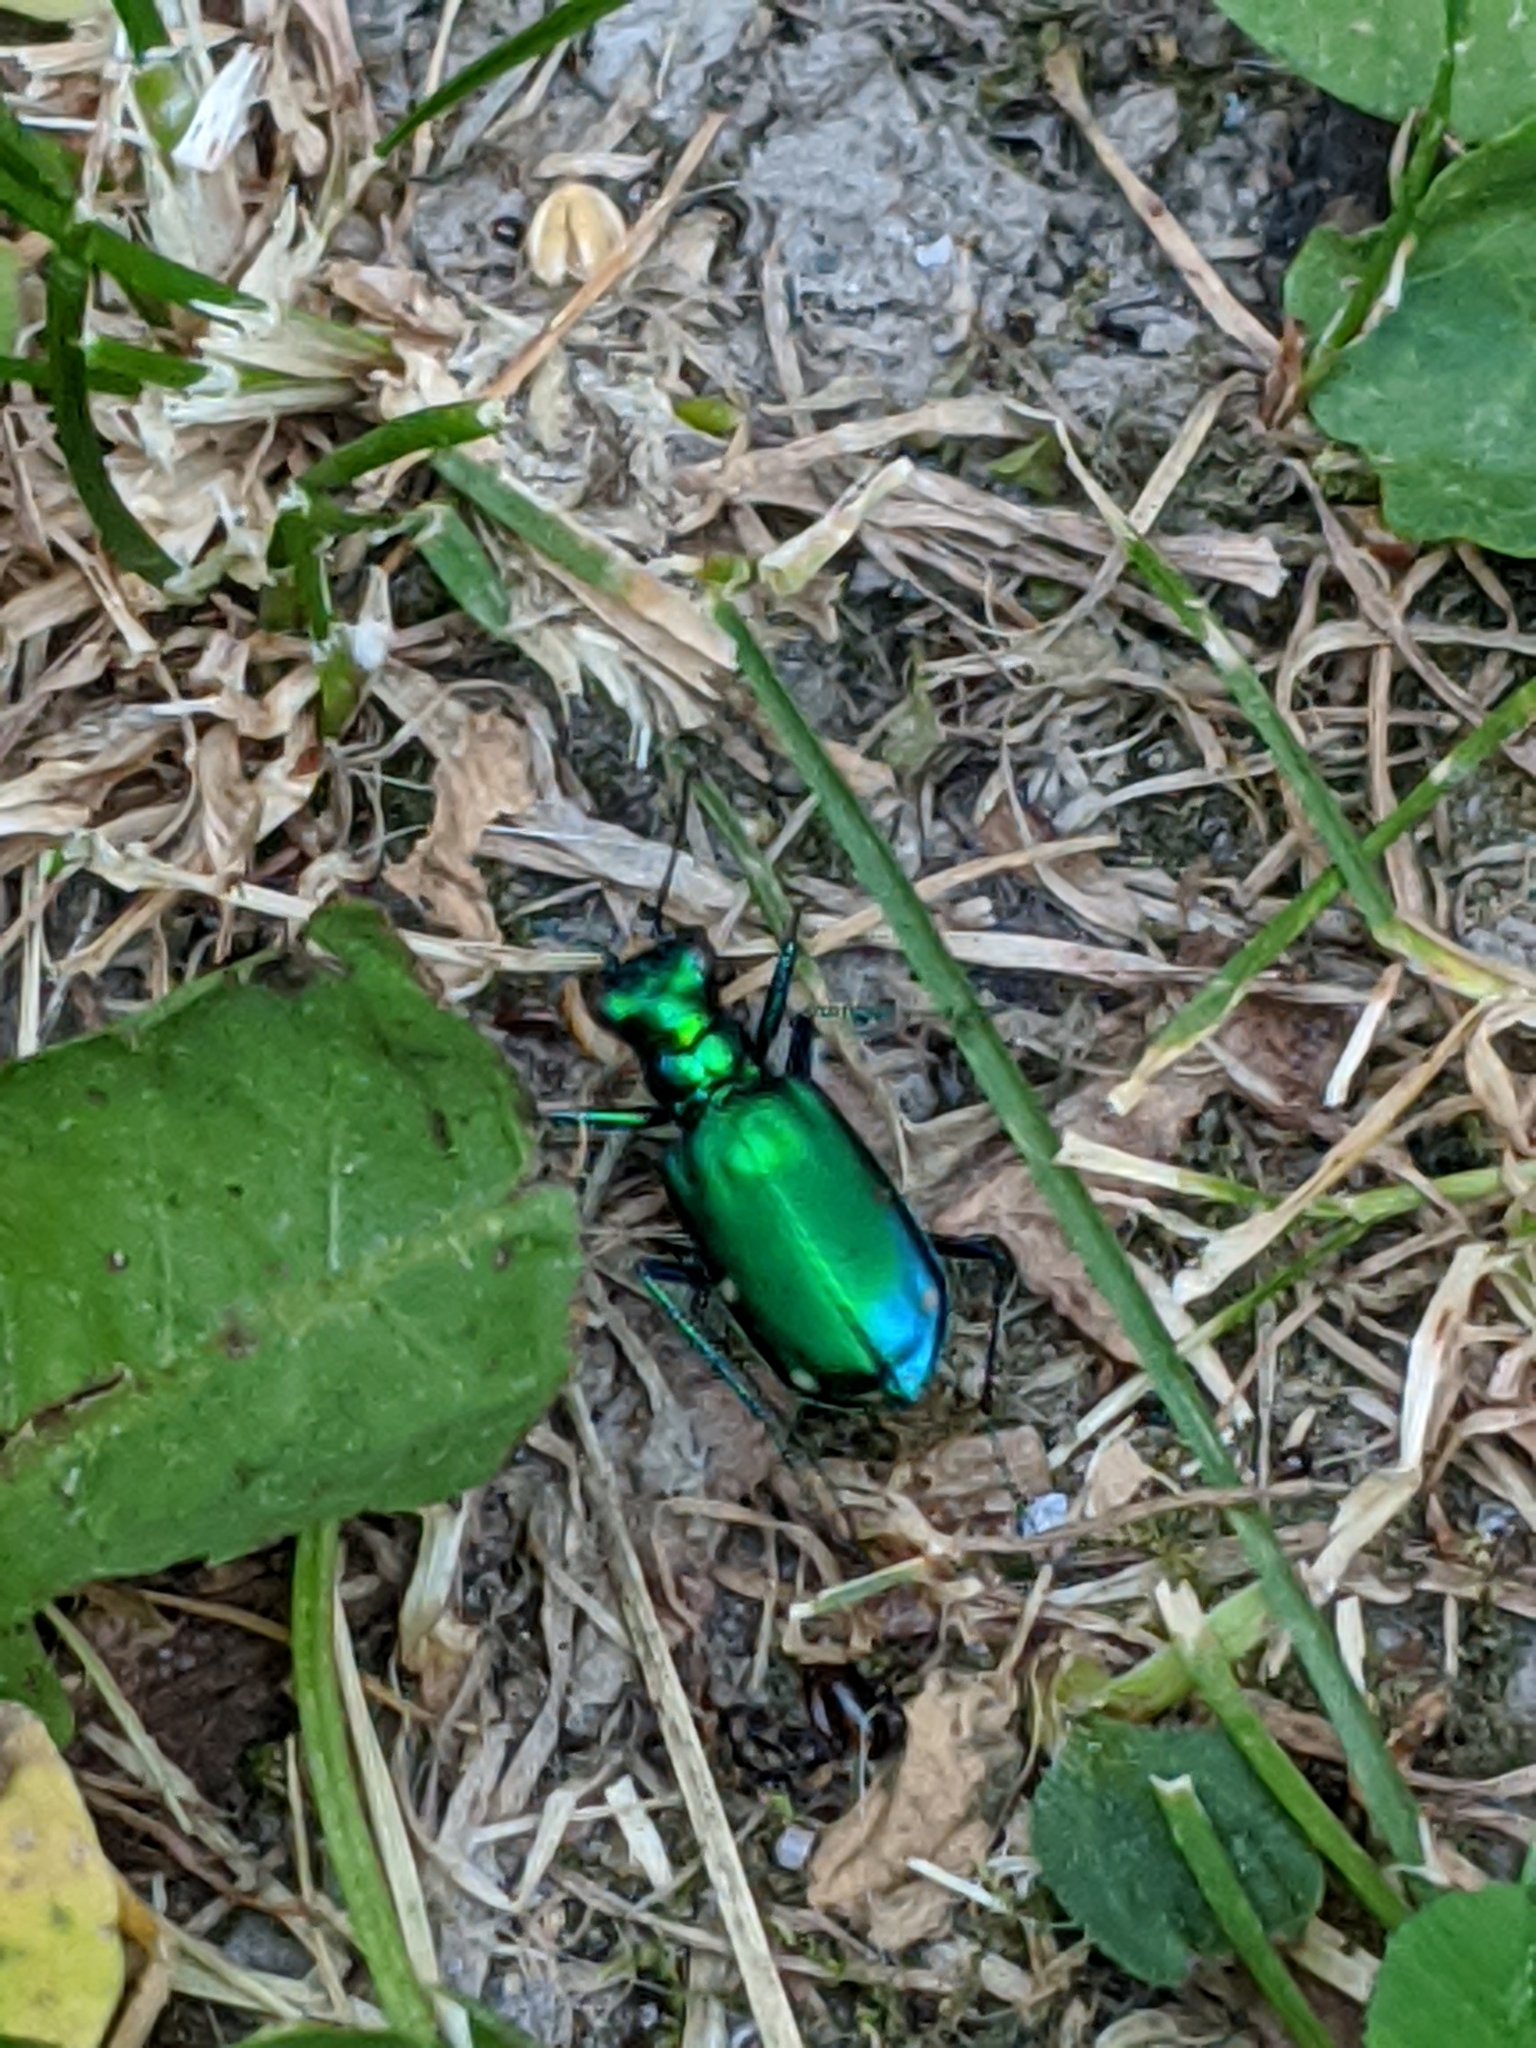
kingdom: Animalia
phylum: Arthropoda
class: Insecta
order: Coleoptera
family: Carabidae
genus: Cicindela
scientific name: Cicindela sexguttata
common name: Six-spotted tiger beetle
